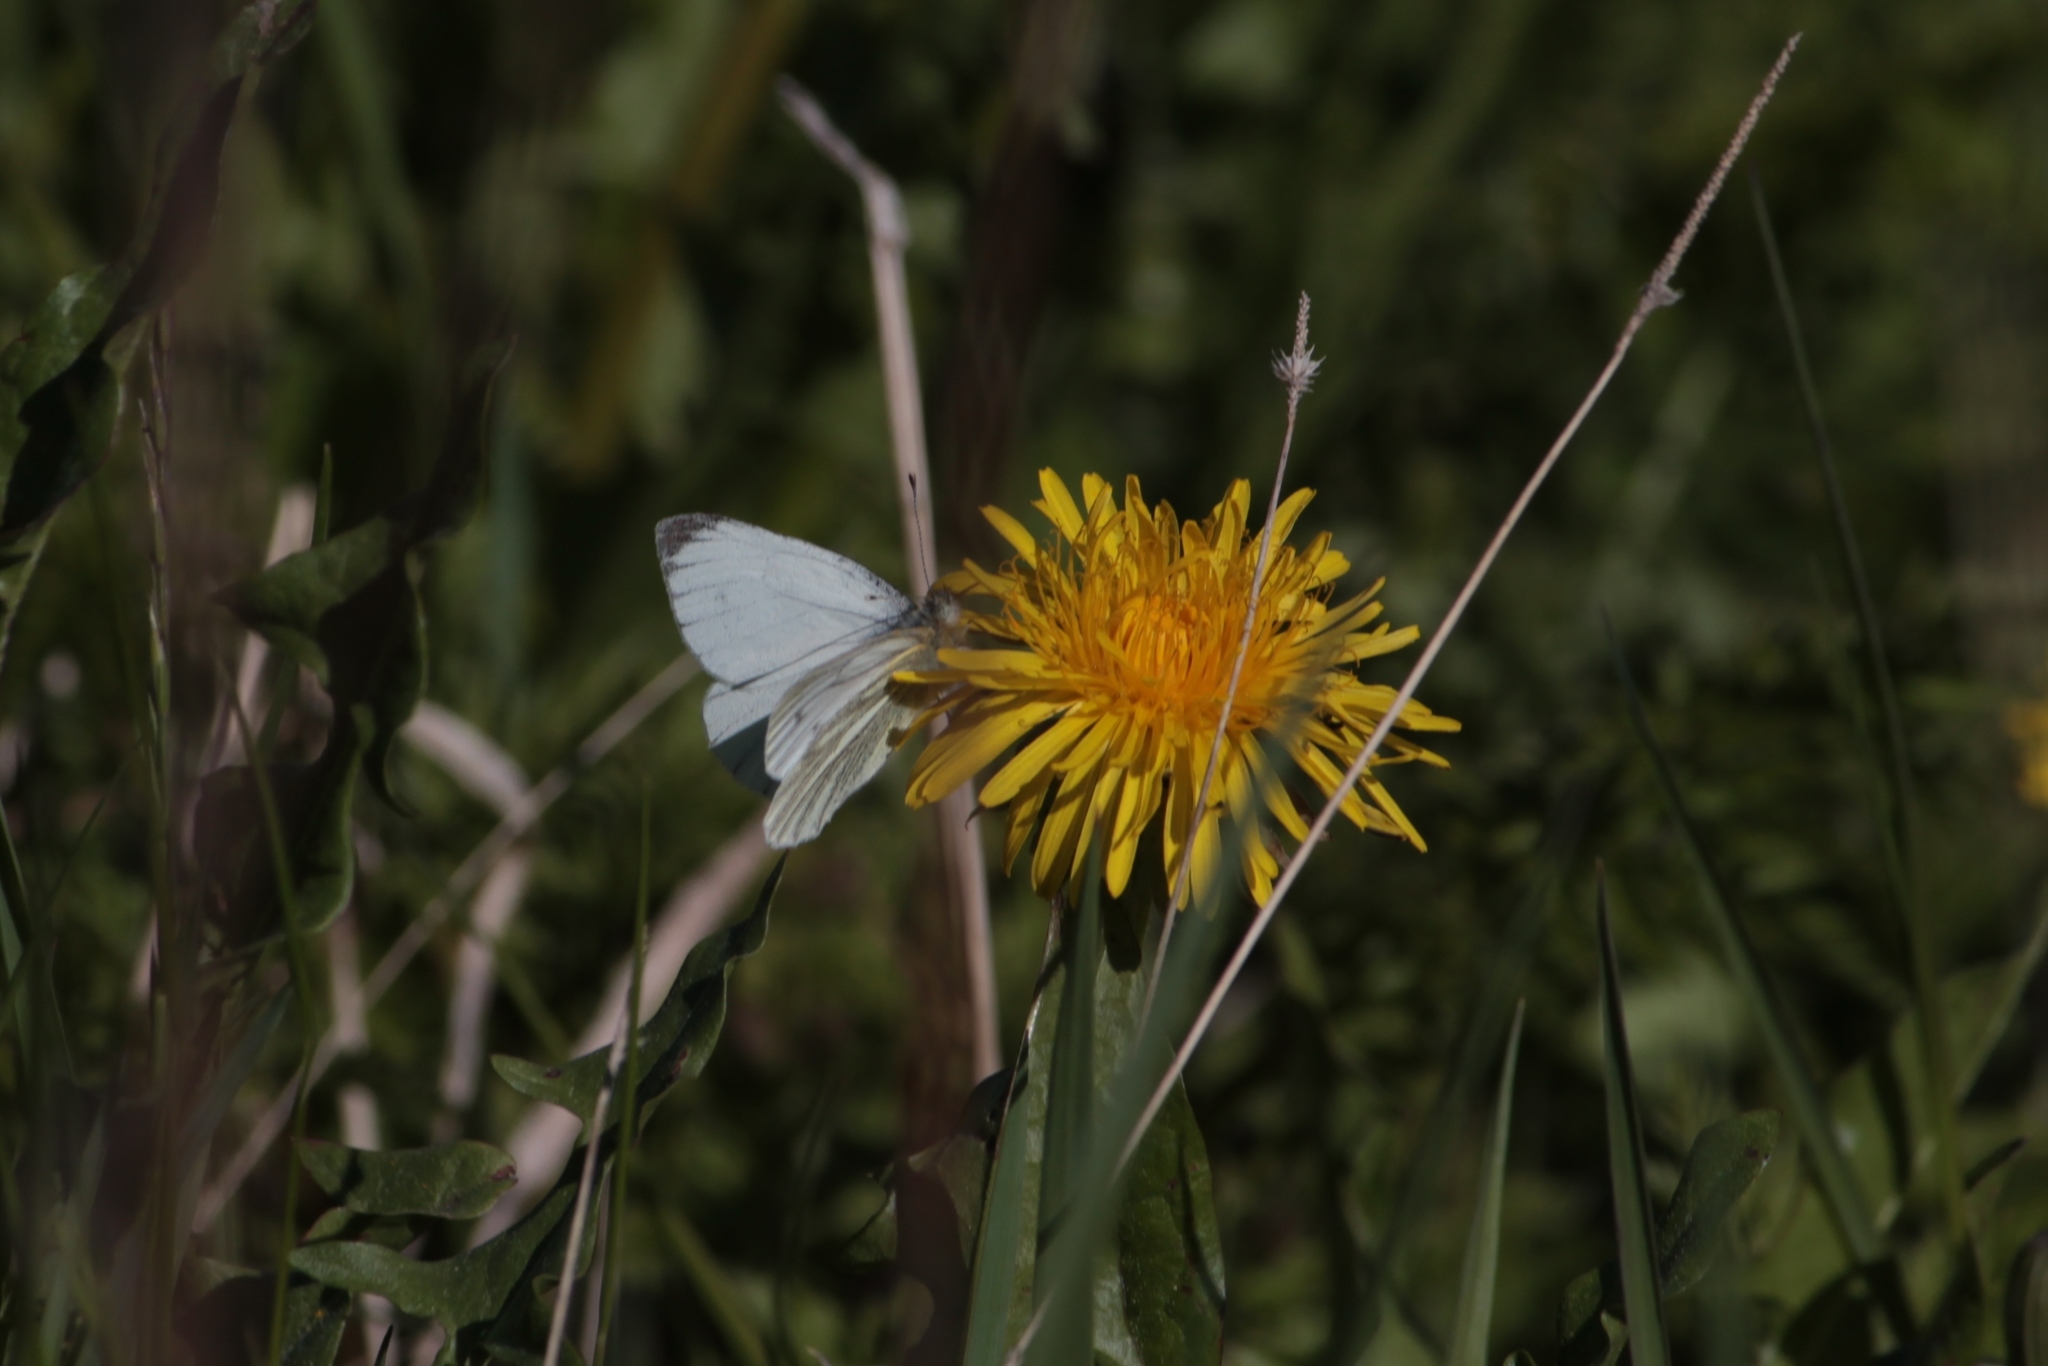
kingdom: Animalia
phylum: Arthropoda
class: Insecta
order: Lepidoptera
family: Pieridae
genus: Pieris
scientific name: Pieris napi
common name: Green-veined white
